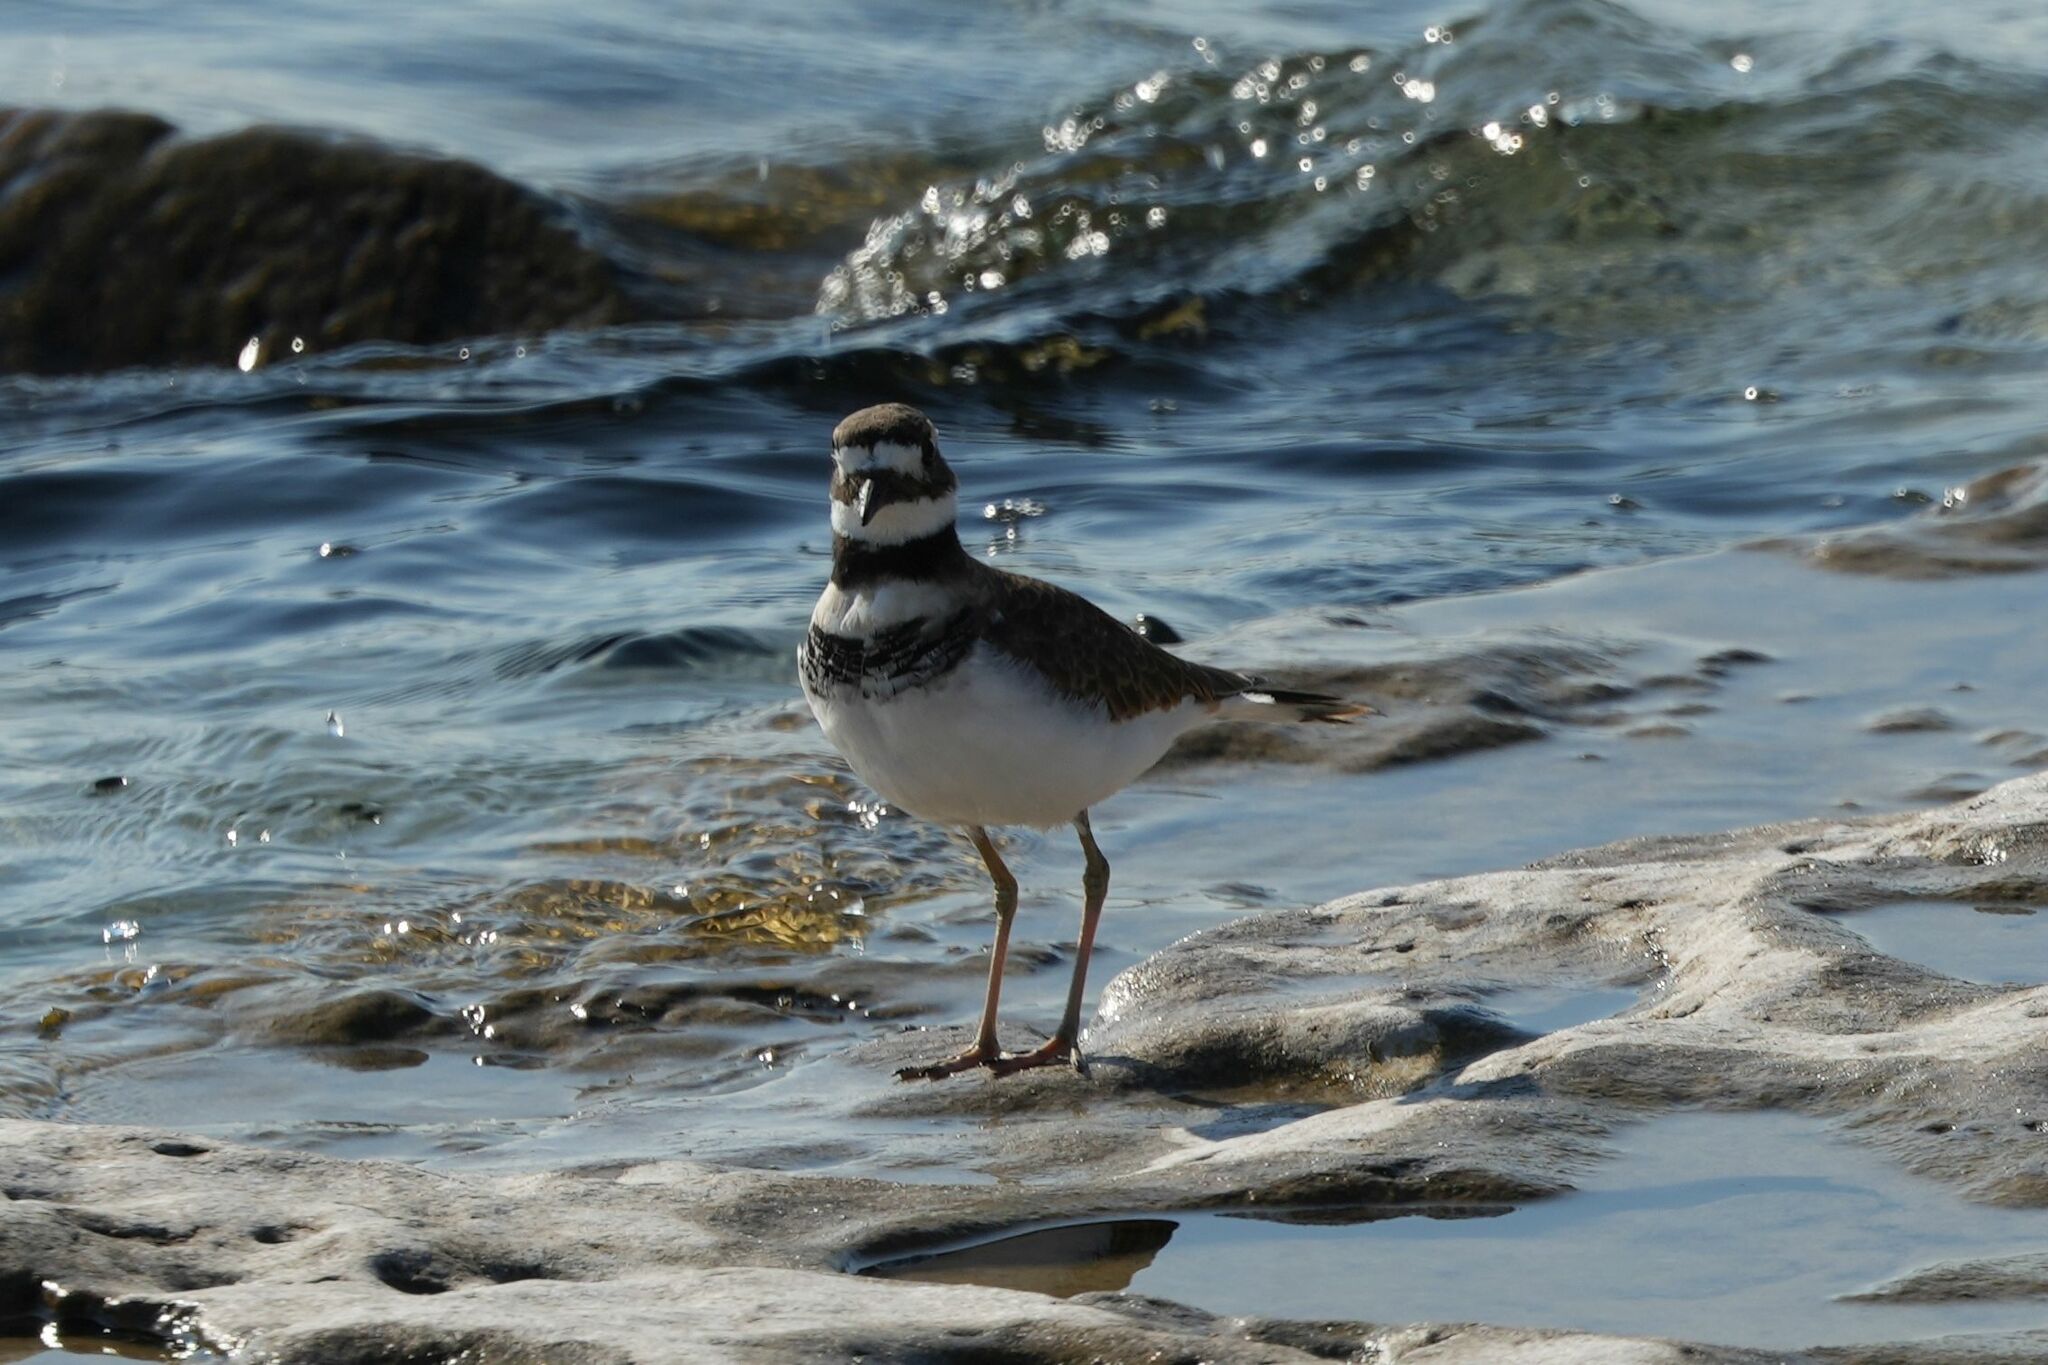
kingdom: Animalia
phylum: Chordata
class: Aves
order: Charadriiformes
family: Charadriidae
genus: Charadrius
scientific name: Charadrius vociferus
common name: Killdeer
